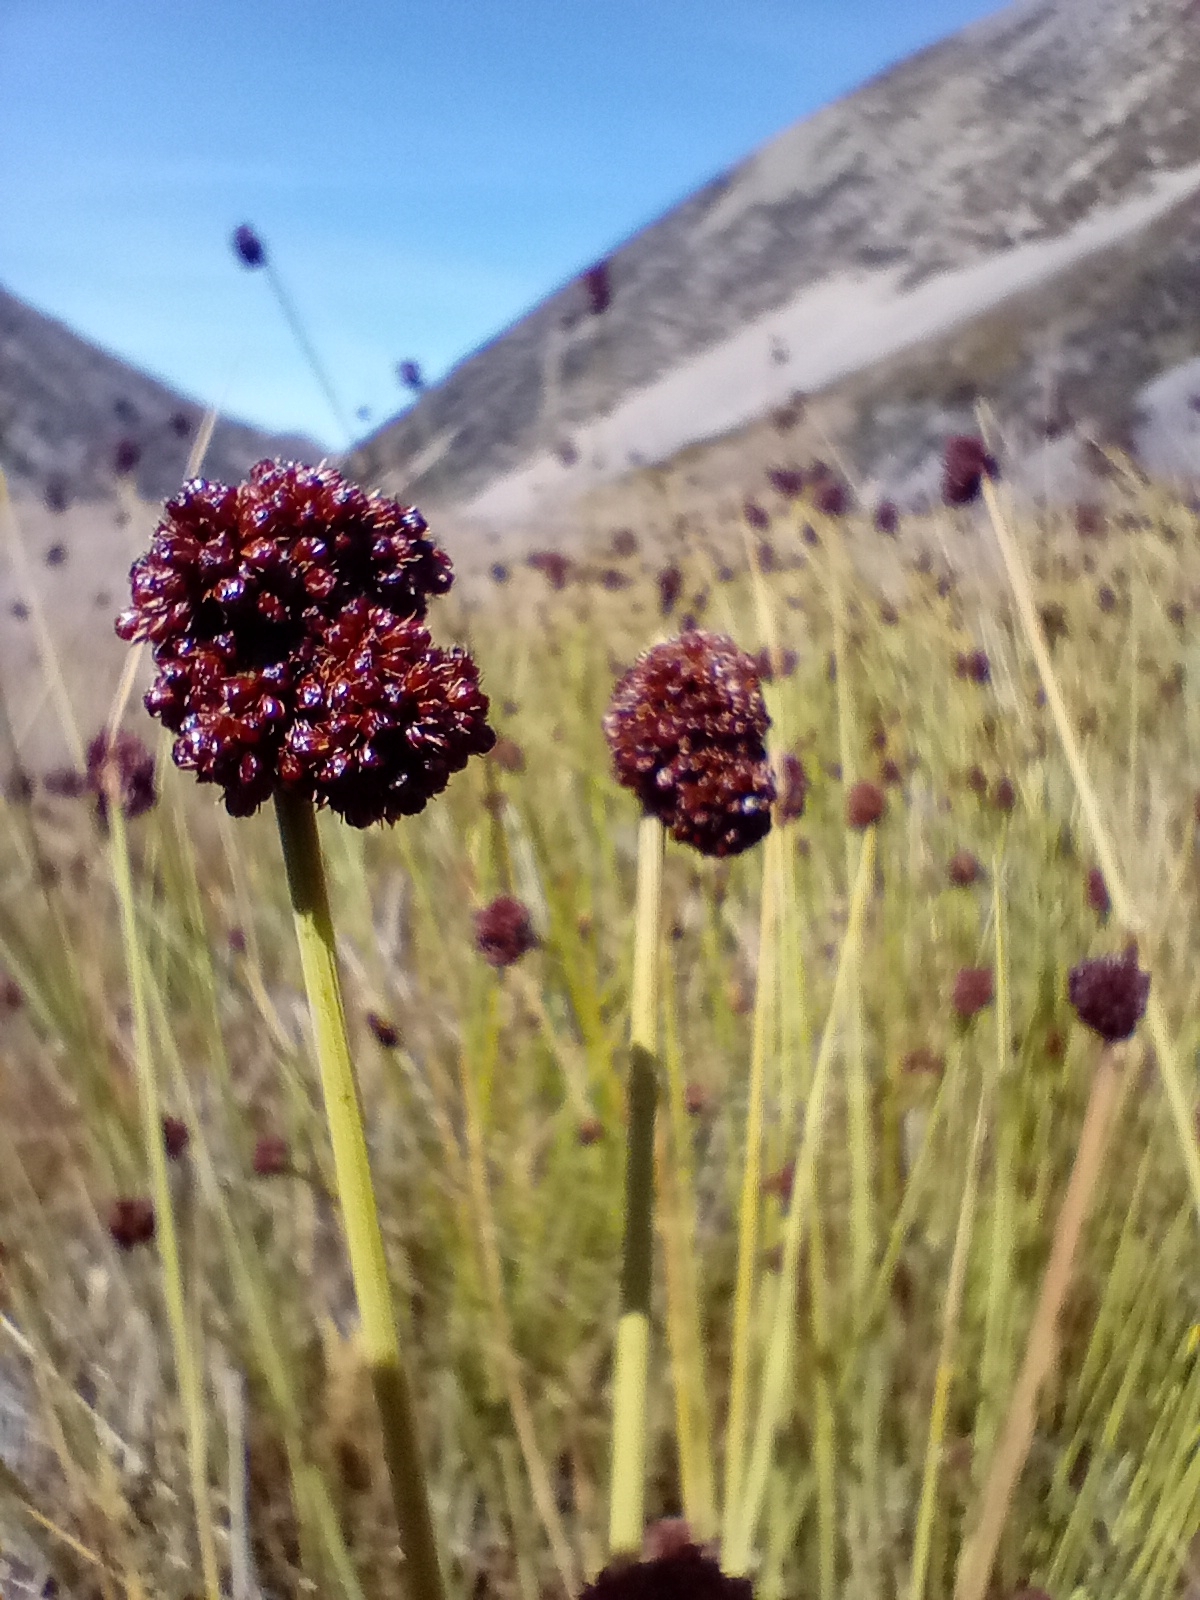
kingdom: Plantae
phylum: Tracheophyta
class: Liliopsida
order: Poales
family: Juncaceae
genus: Juncus
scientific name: Juncus conglomeratus
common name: Compact rush
